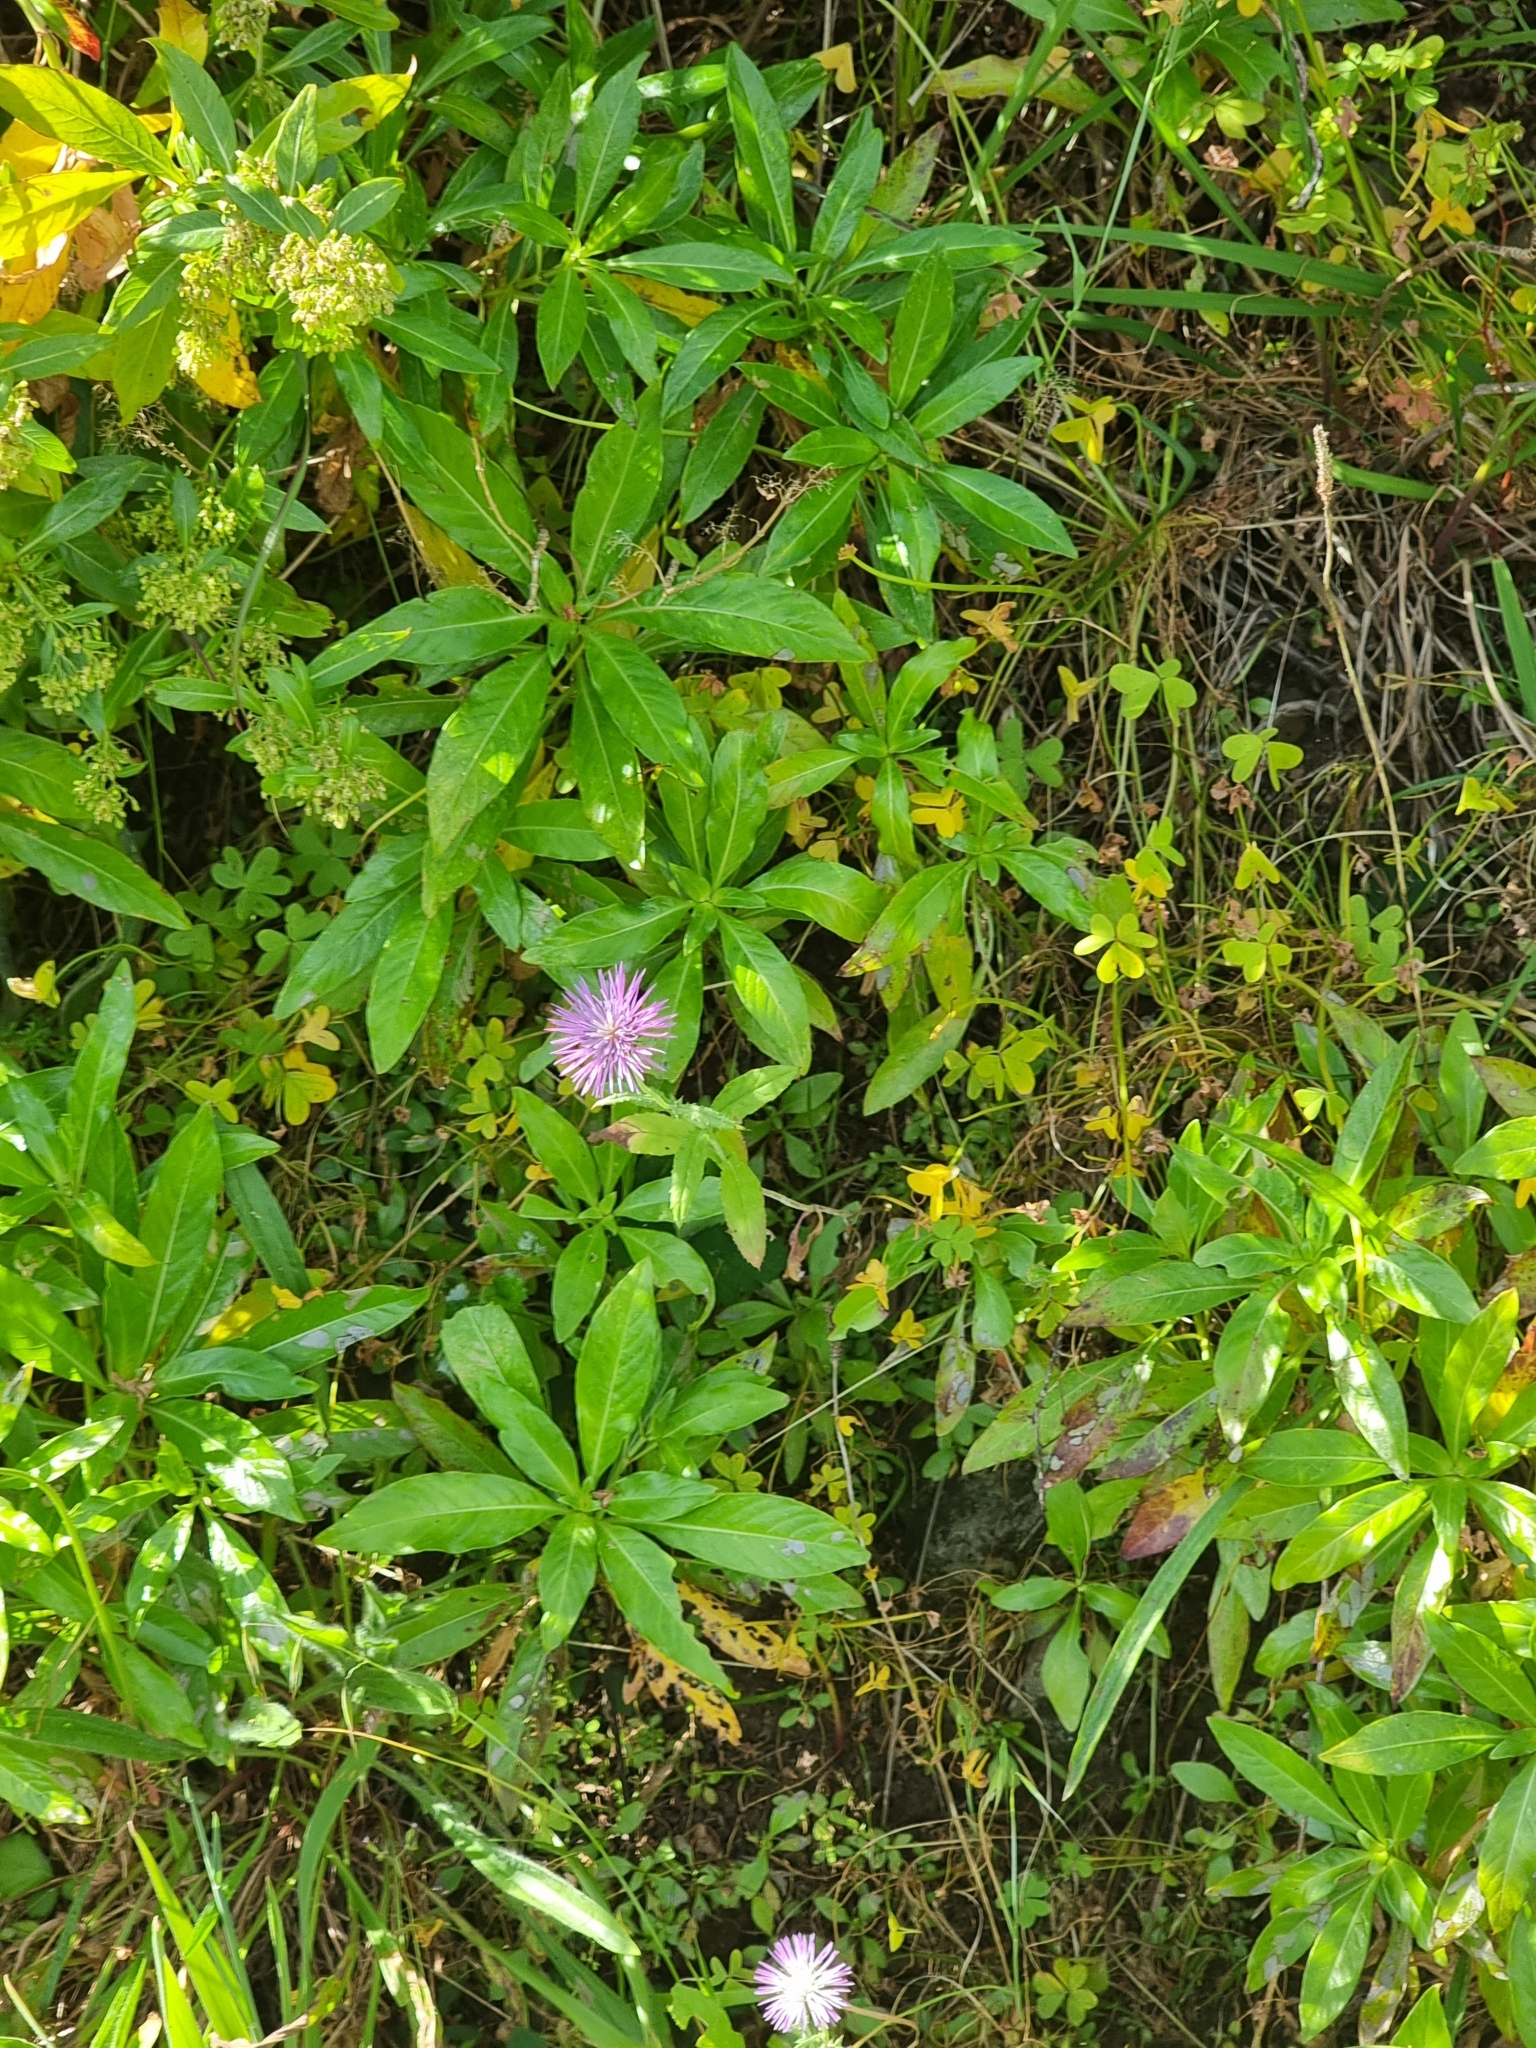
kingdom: Plantae
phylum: Tracheophyta
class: Magnoliopsida
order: Asterales
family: Asteraceae
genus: Galactites
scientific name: Galactites tomentosa
